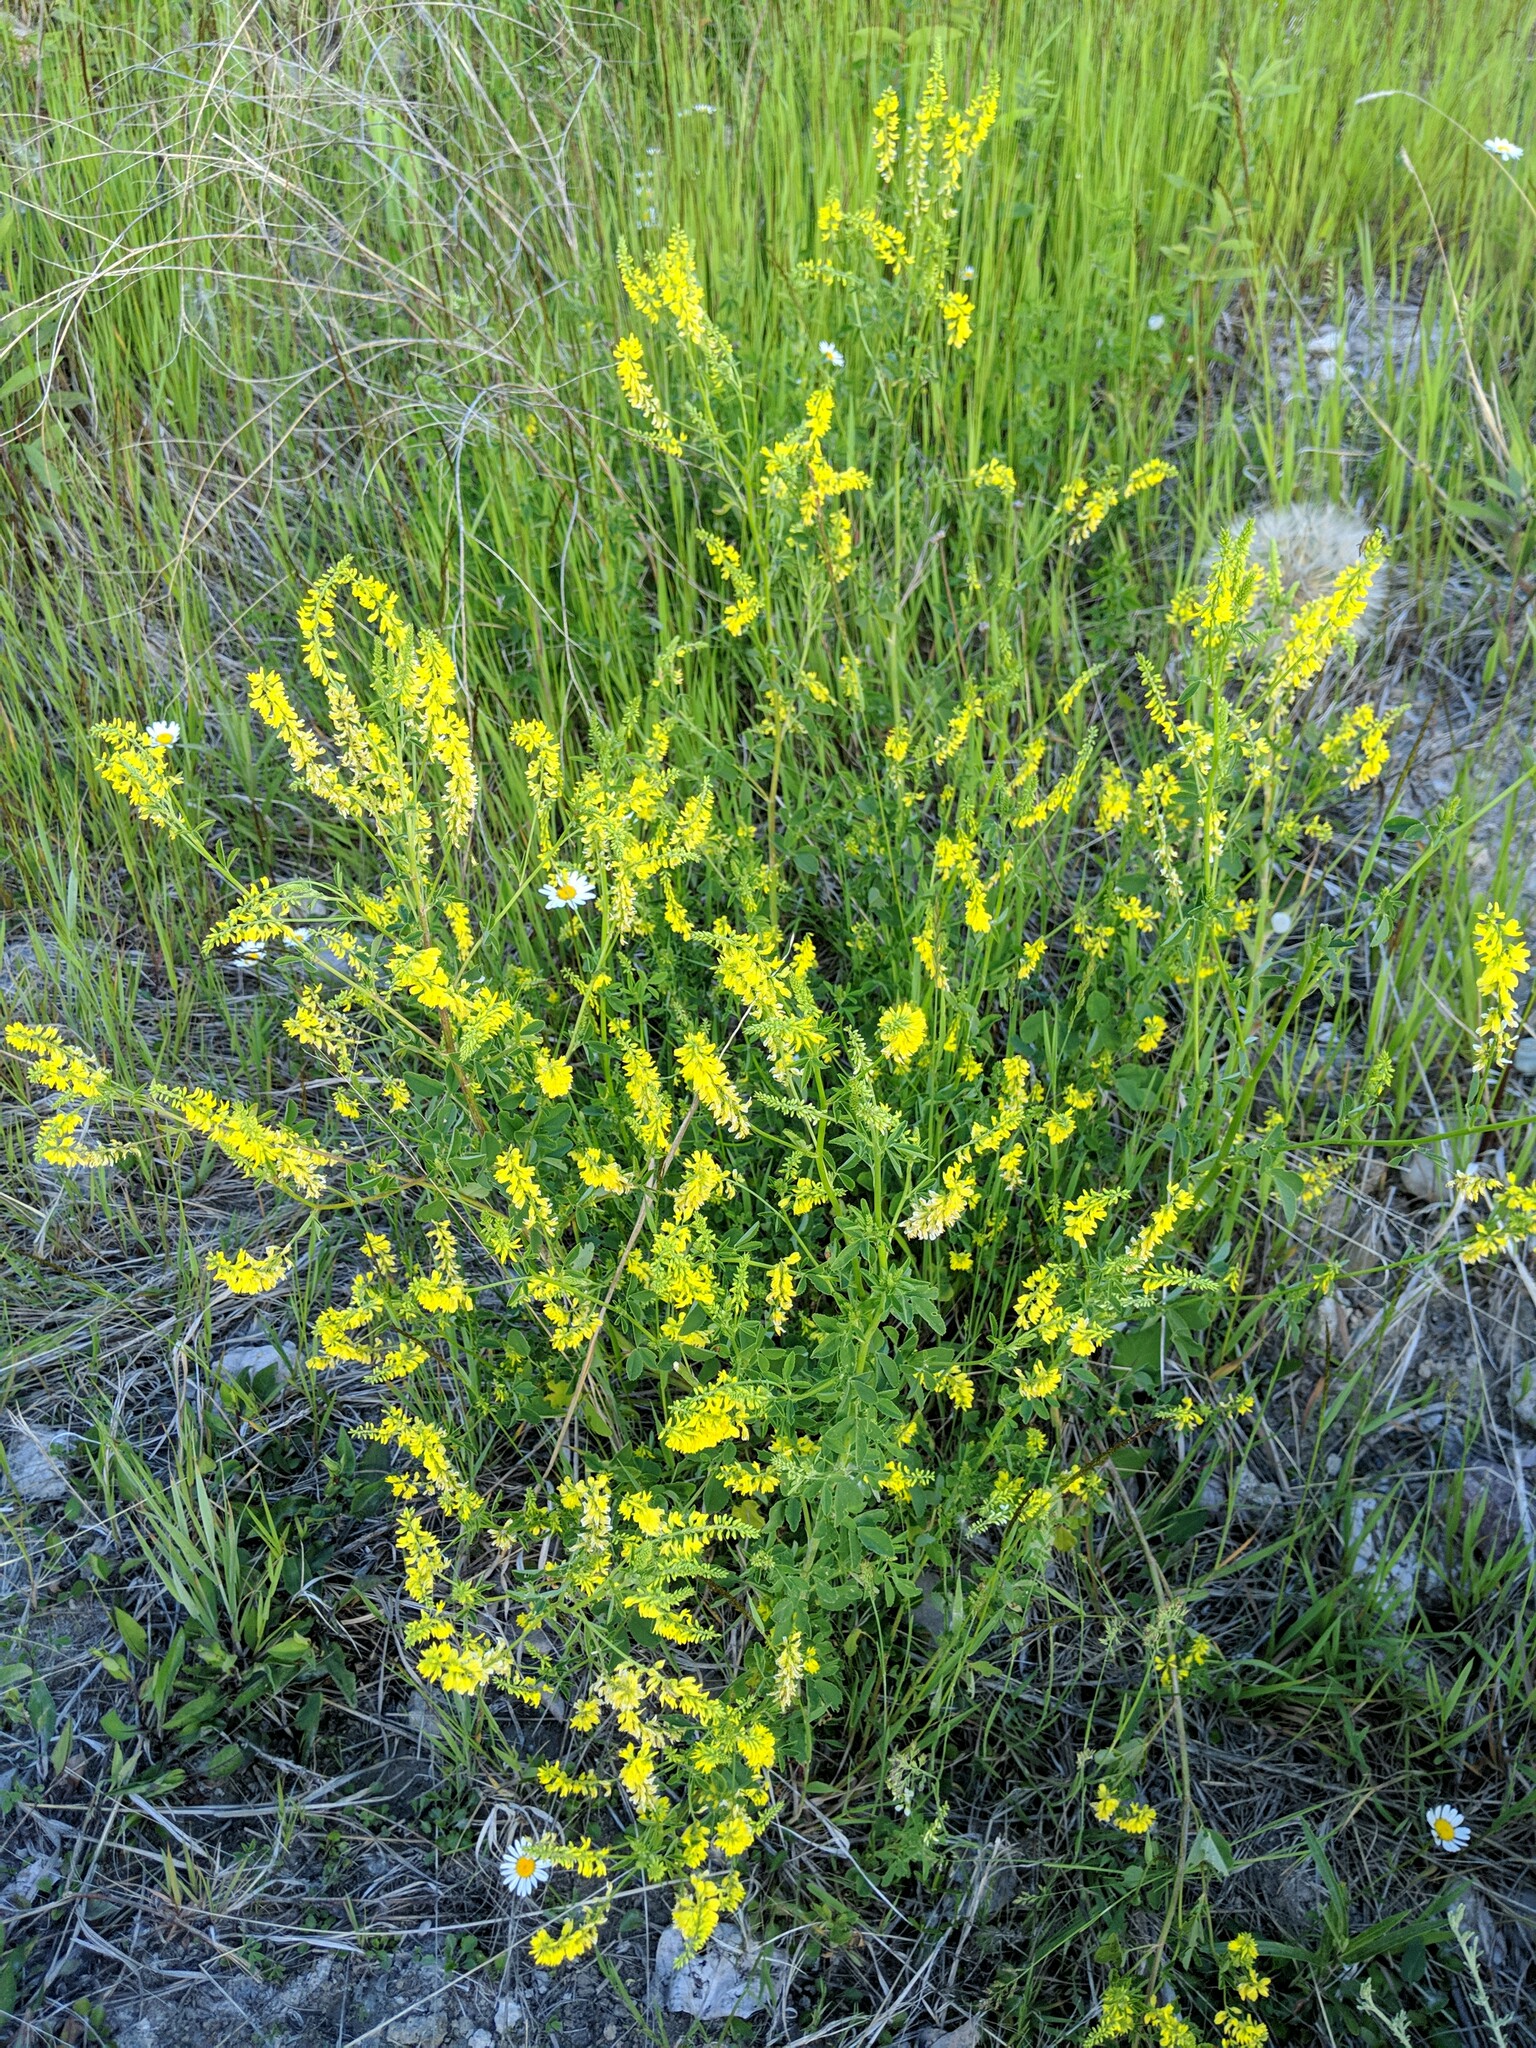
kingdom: Plantae
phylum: Tracheophyta
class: Magnoliopsida
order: Fabales
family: Fabaceae
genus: Melilotus
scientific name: Melilotus officinalis
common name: Sweetclover
